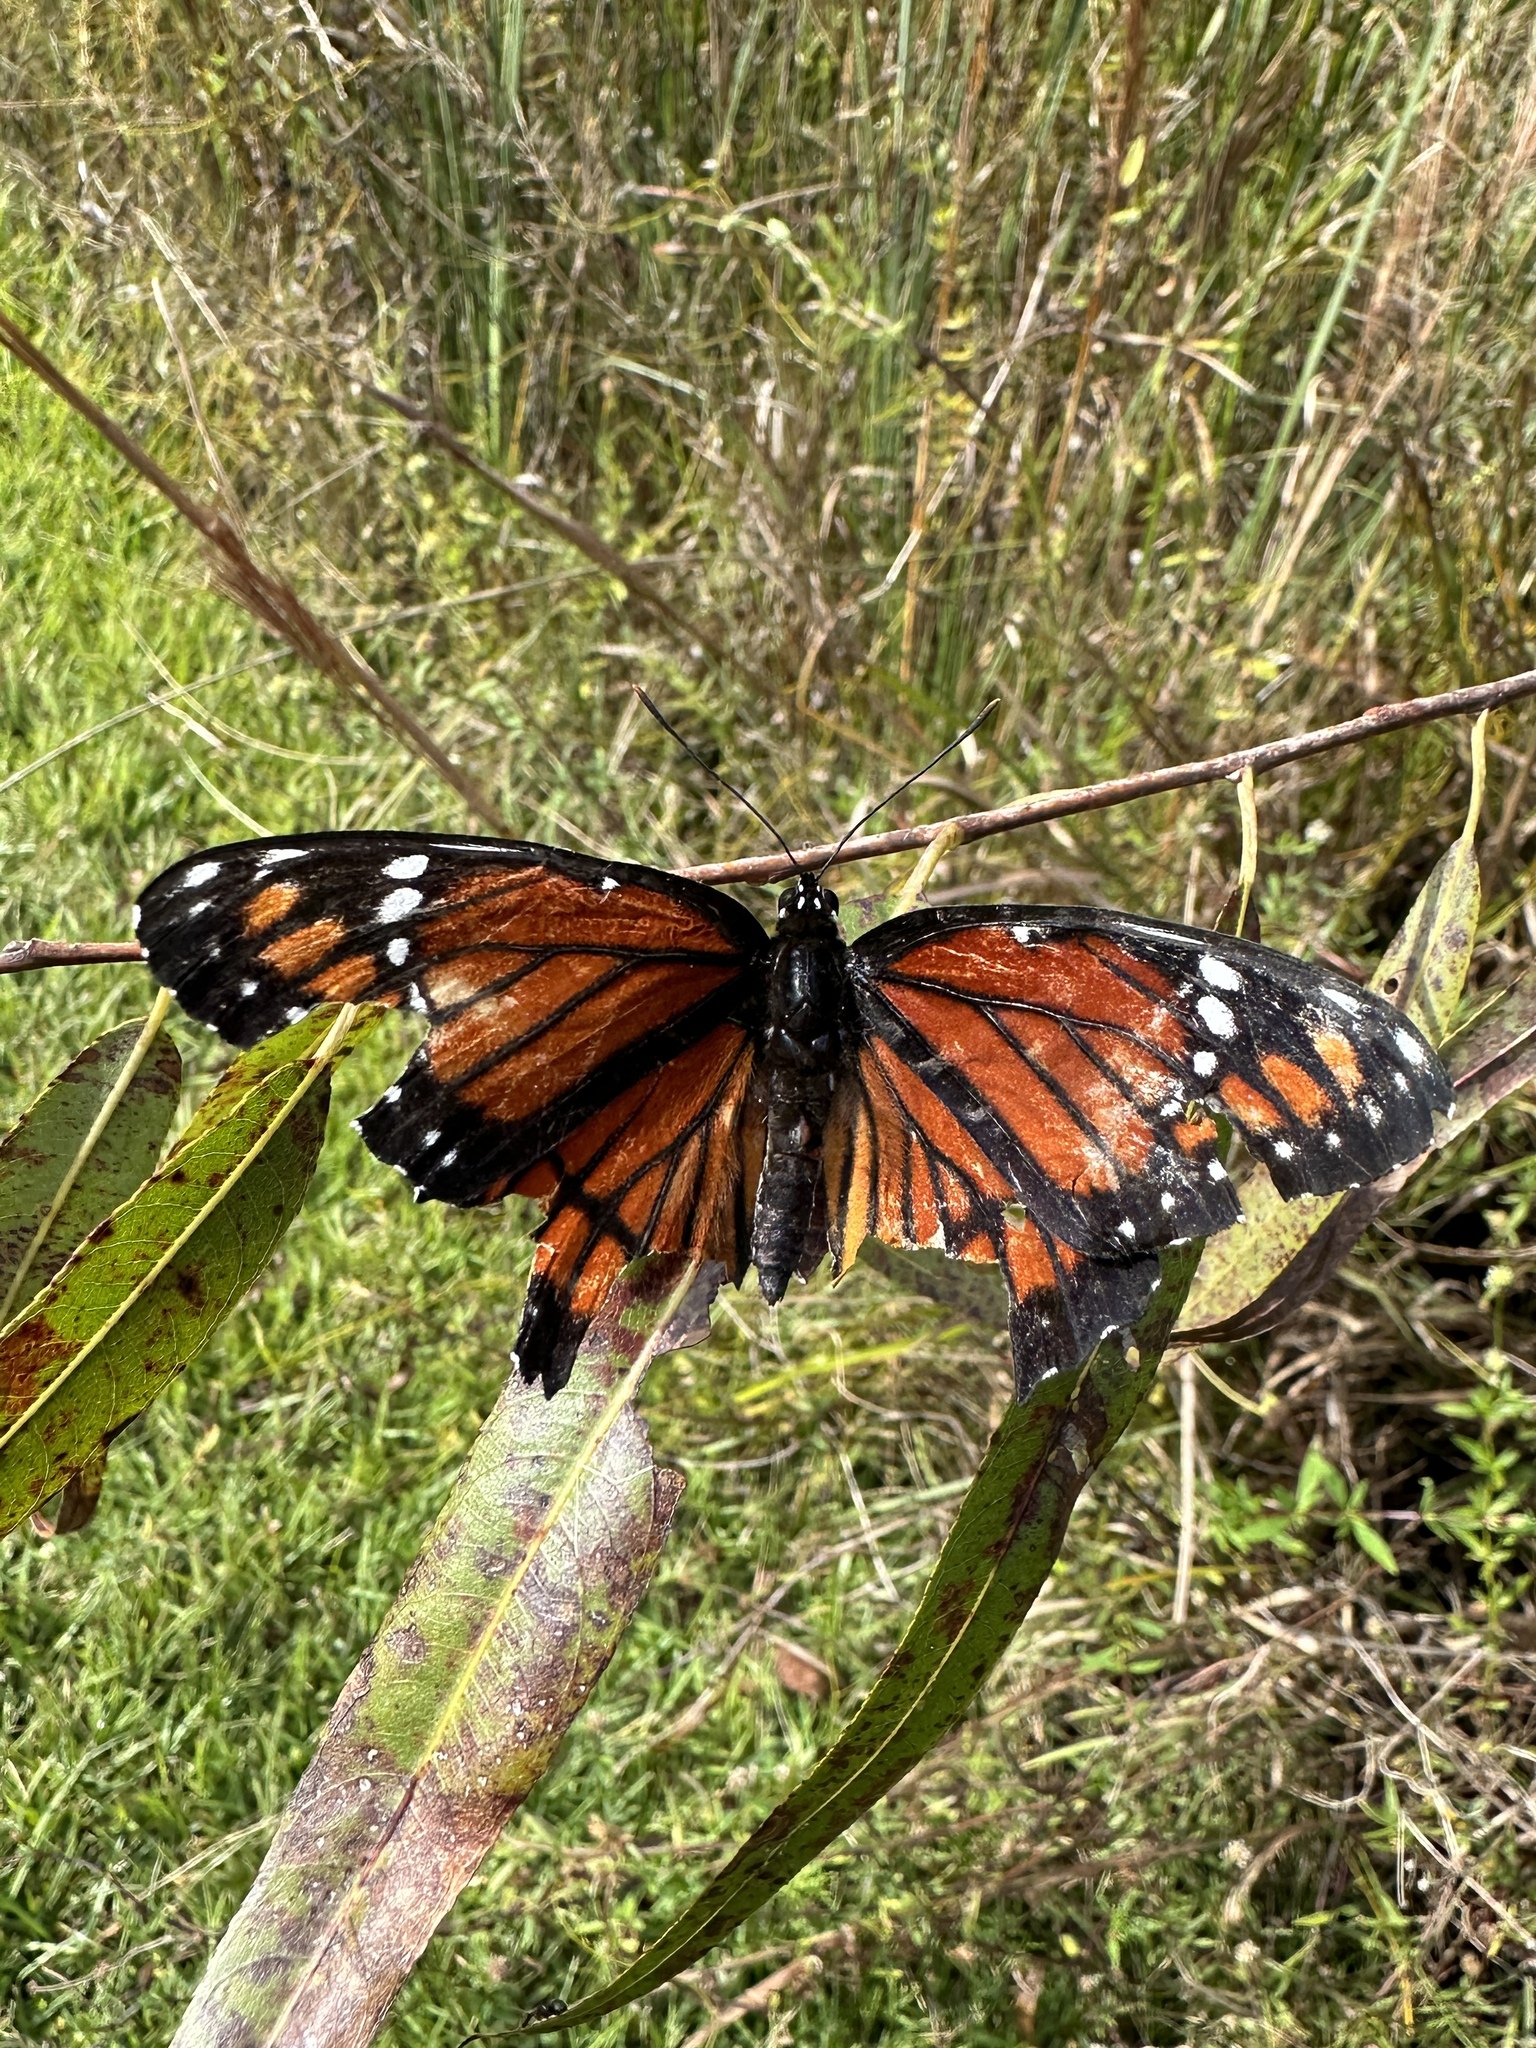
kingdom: Animalia
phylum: Arthropoda
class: Insecta
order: Lepidoptera
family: Nymphalidae
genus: Limenitis
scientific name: Limenitis archippus
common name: Viceroy
